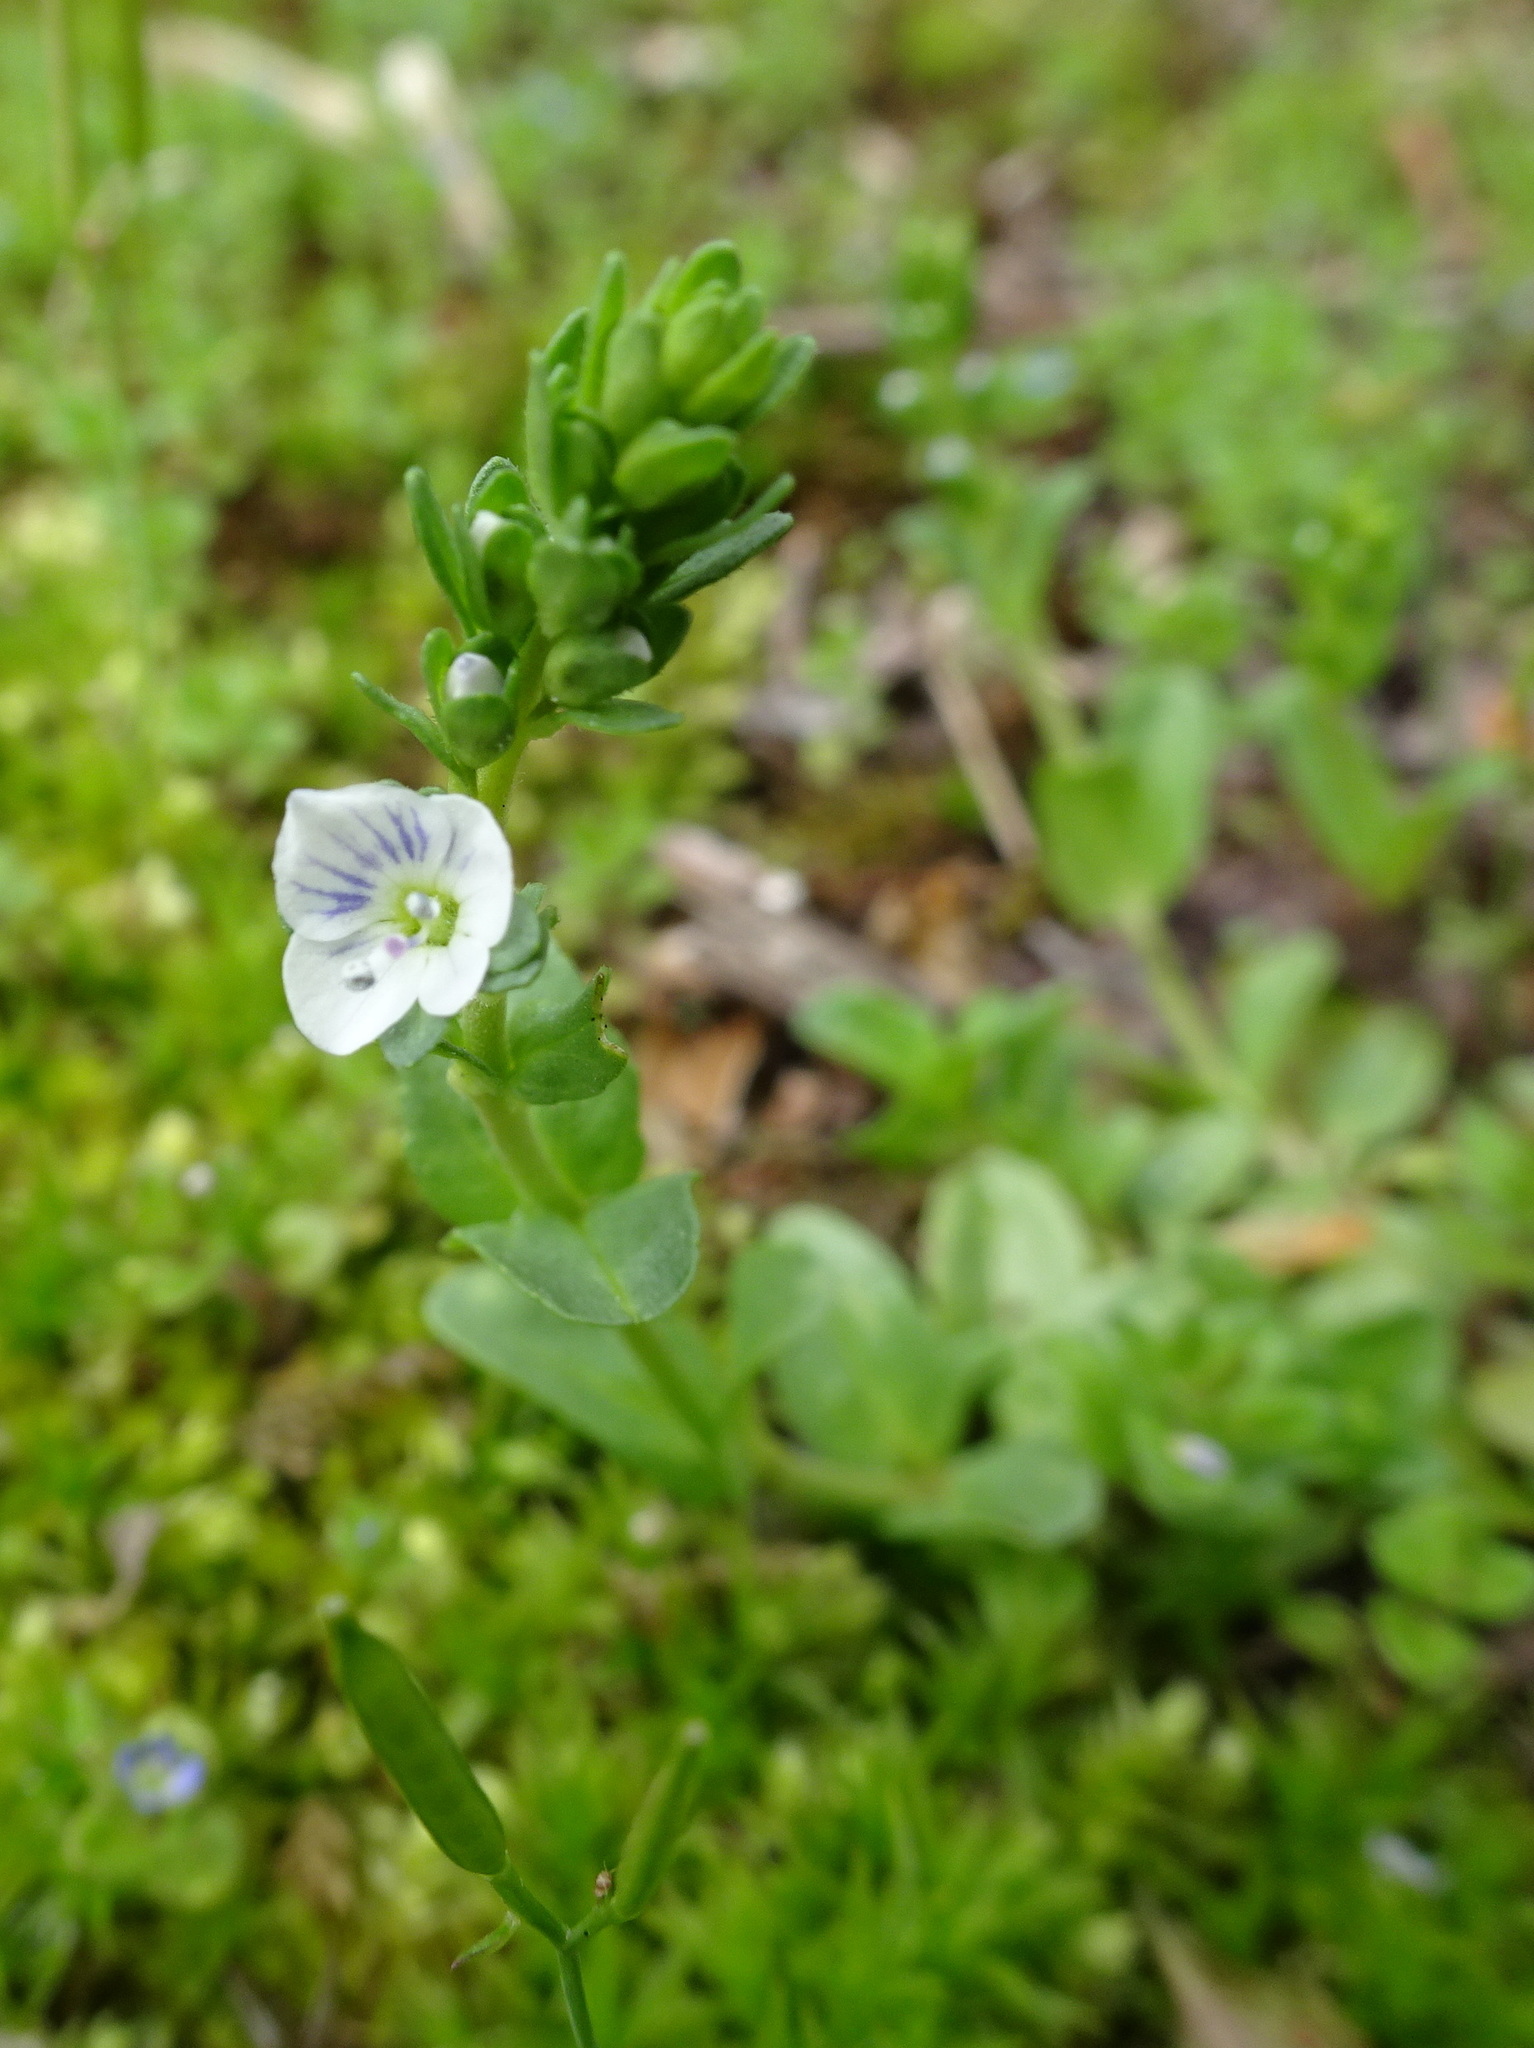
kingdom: Plantae
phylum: Tracheophyta
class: Magnoliopsida
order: Lamiales
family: Plantaginaceae
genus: Veronica
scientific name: Veronica serpyllifolia
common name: Thyme-leaved speedwell
